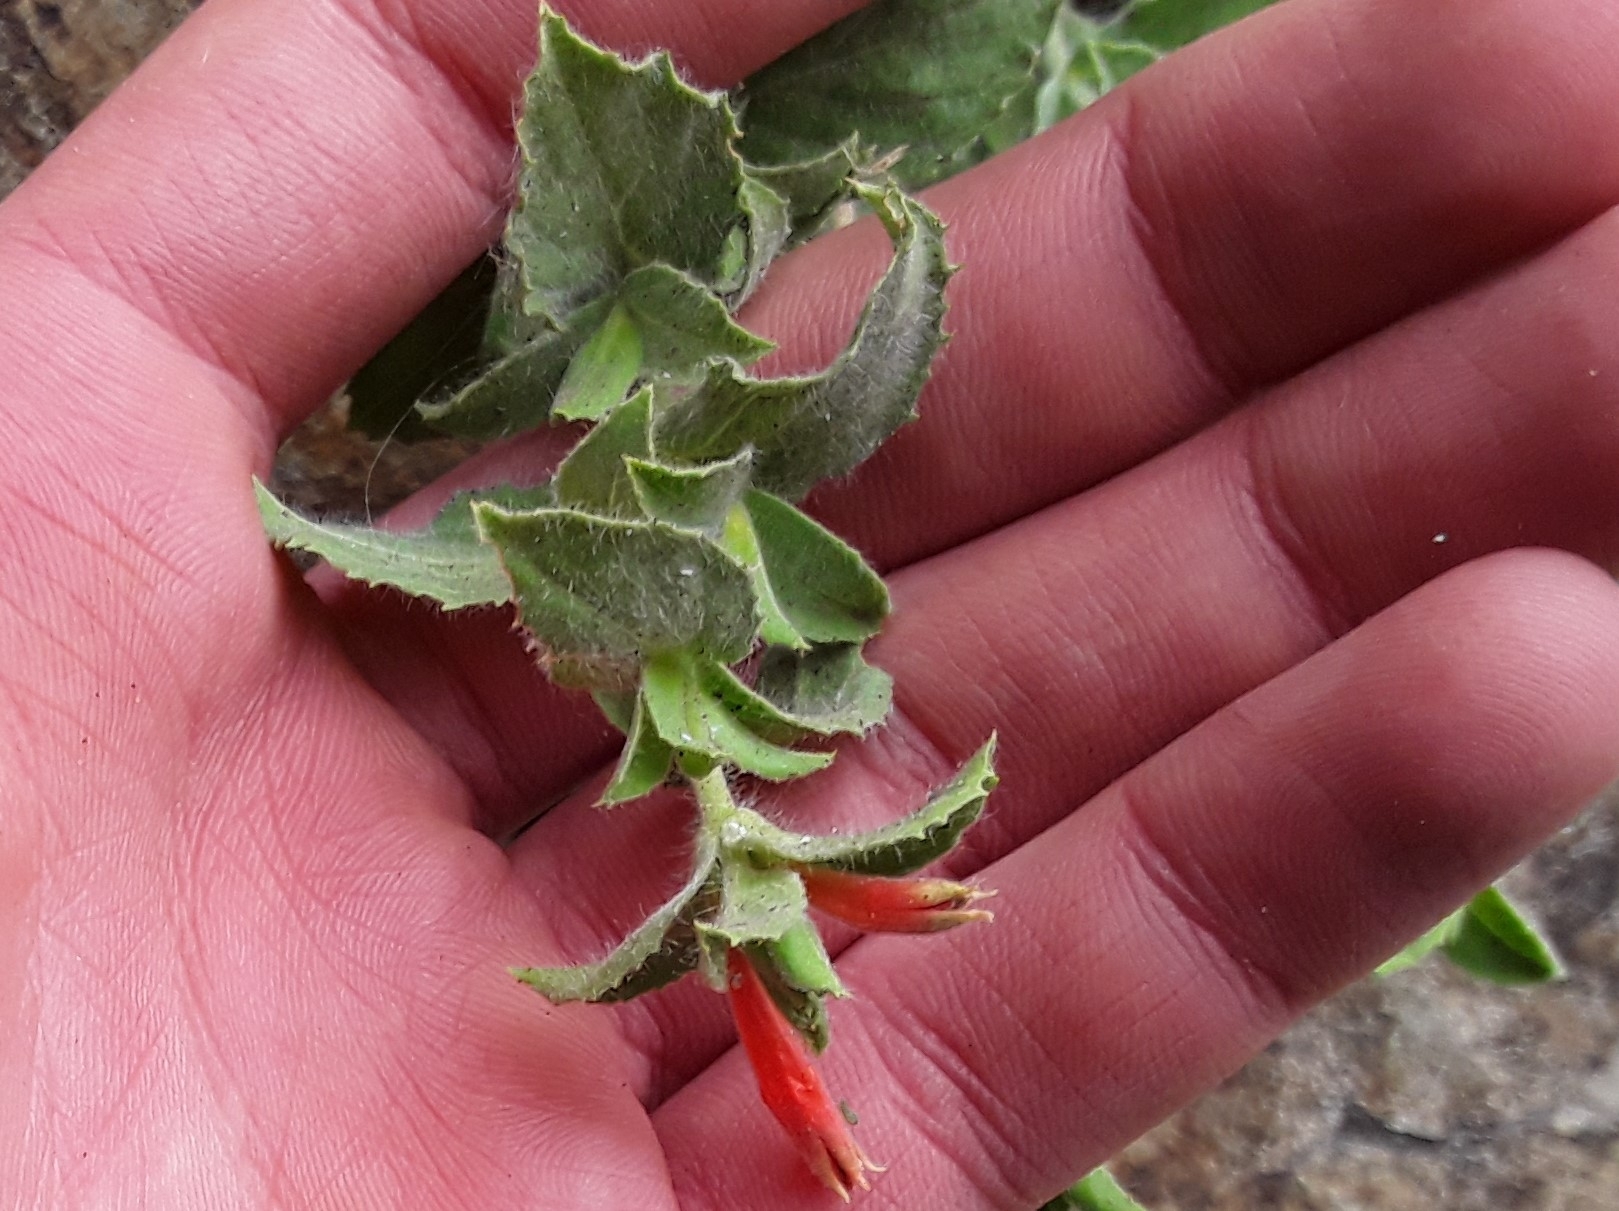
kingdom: Plantae
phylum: Tracheophyta
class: Magnoliopsida
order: Myrtales
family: Onagraceae
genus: Epilobium
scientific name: Epilobium canum
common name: California-fuchsia
